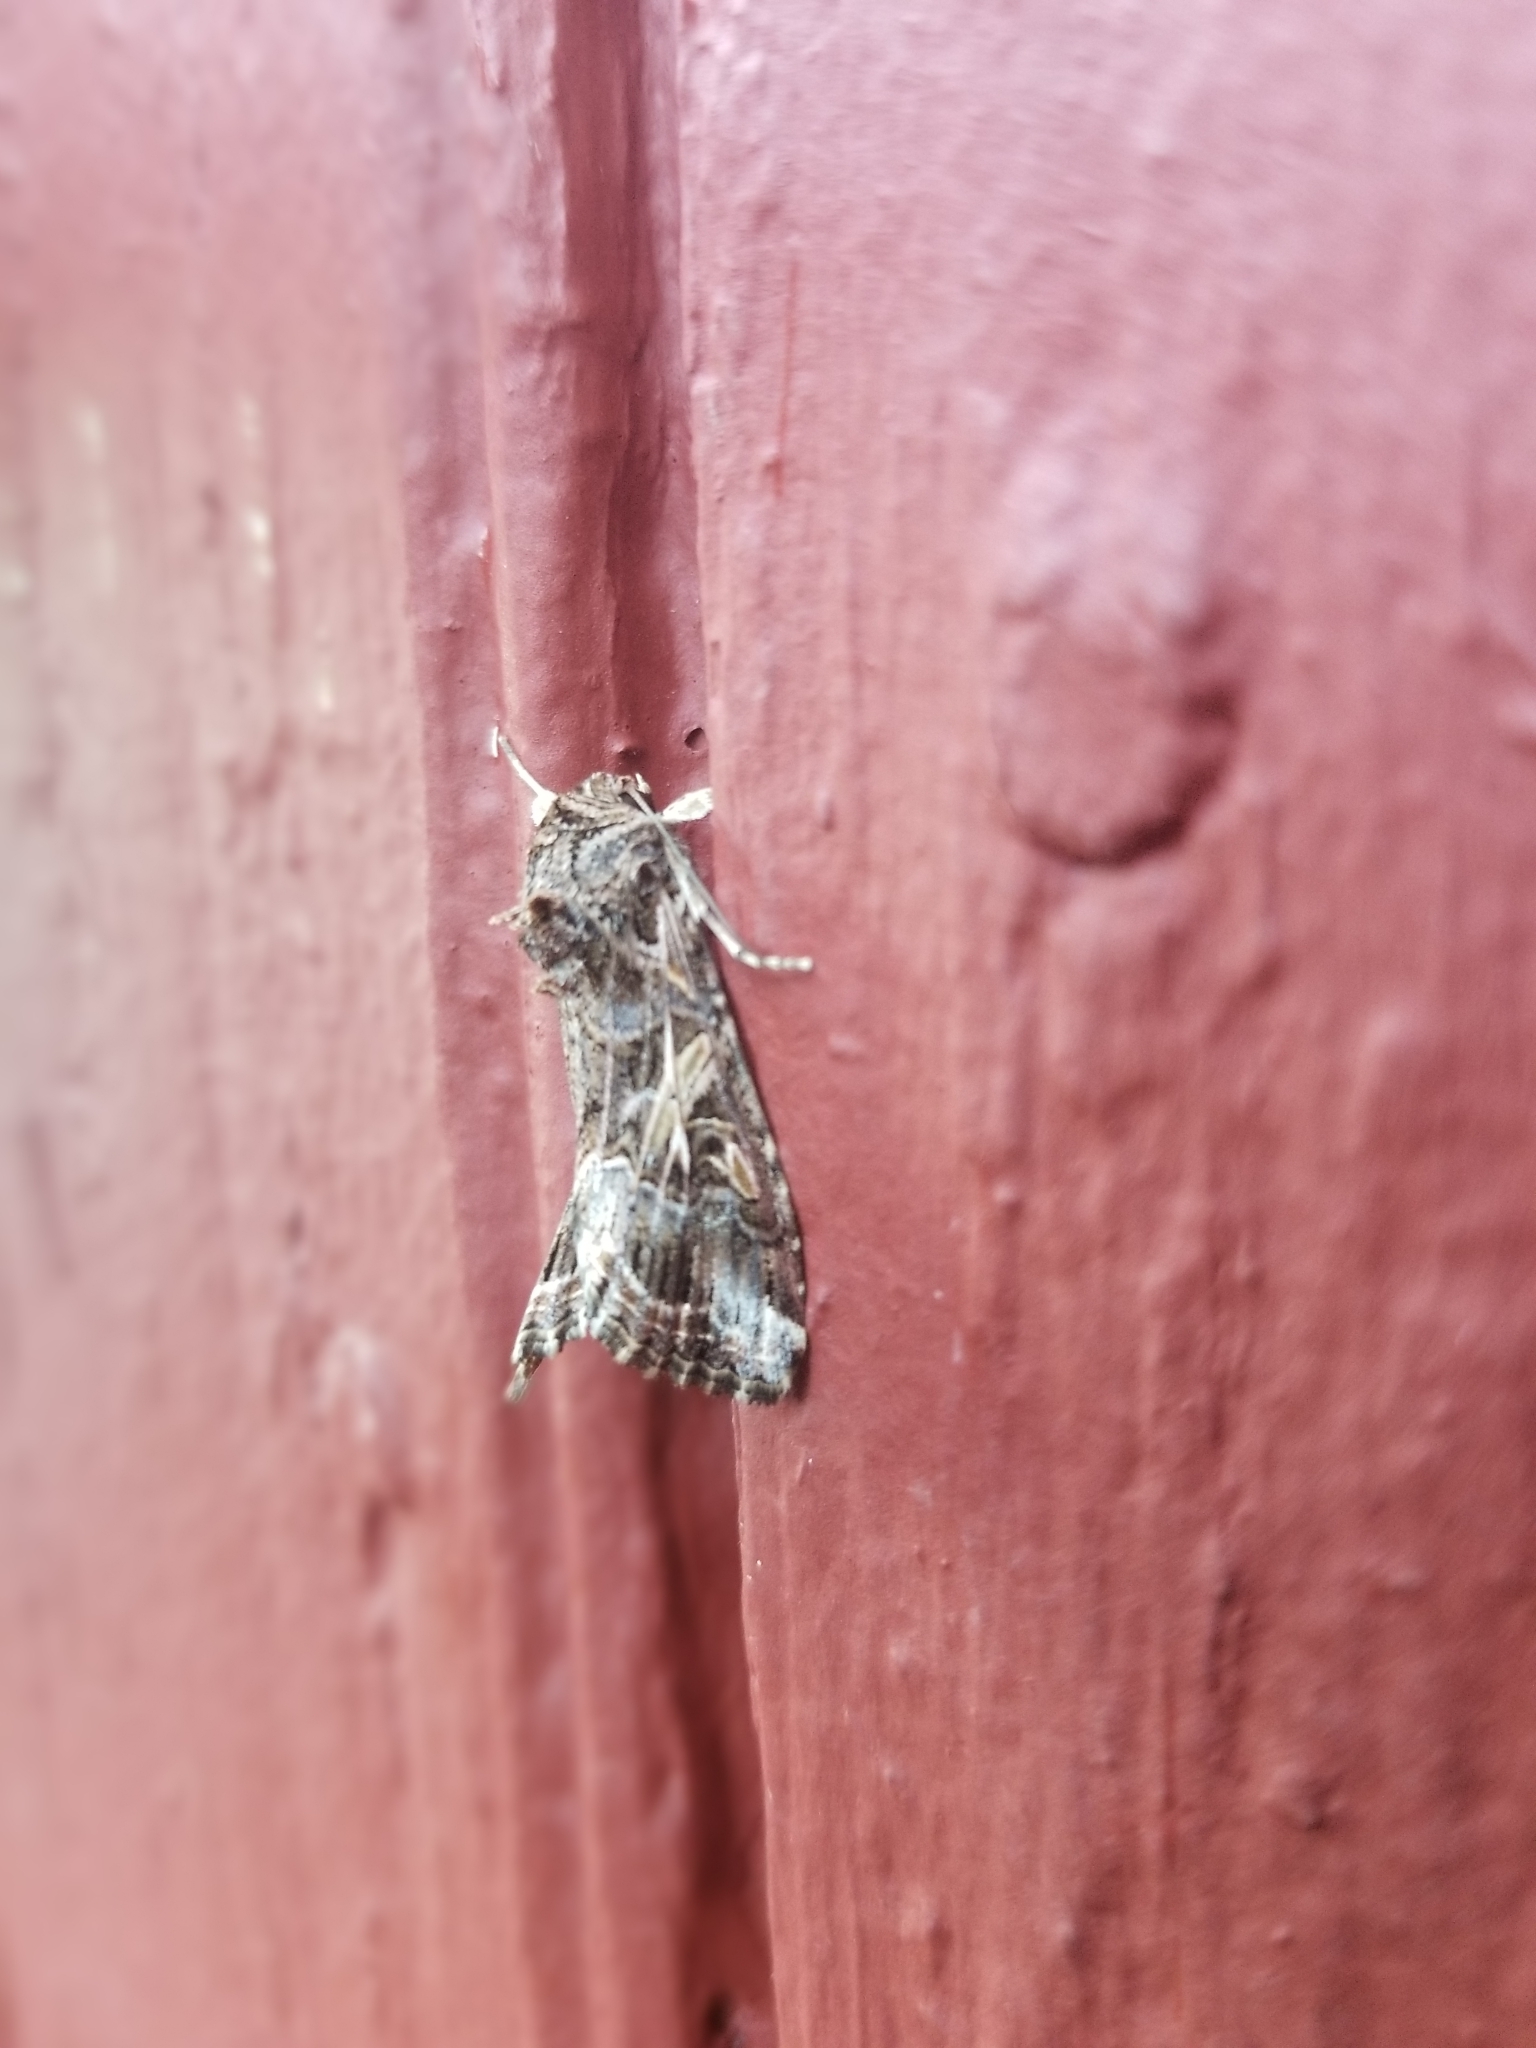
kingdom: Animalia
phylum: Arthropoda
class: Insecta
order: Lepidoptera
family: Noctuidae
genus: Spodoptera
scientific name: Spodoptera ornithogalli
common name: Yellow-striped armyworm
